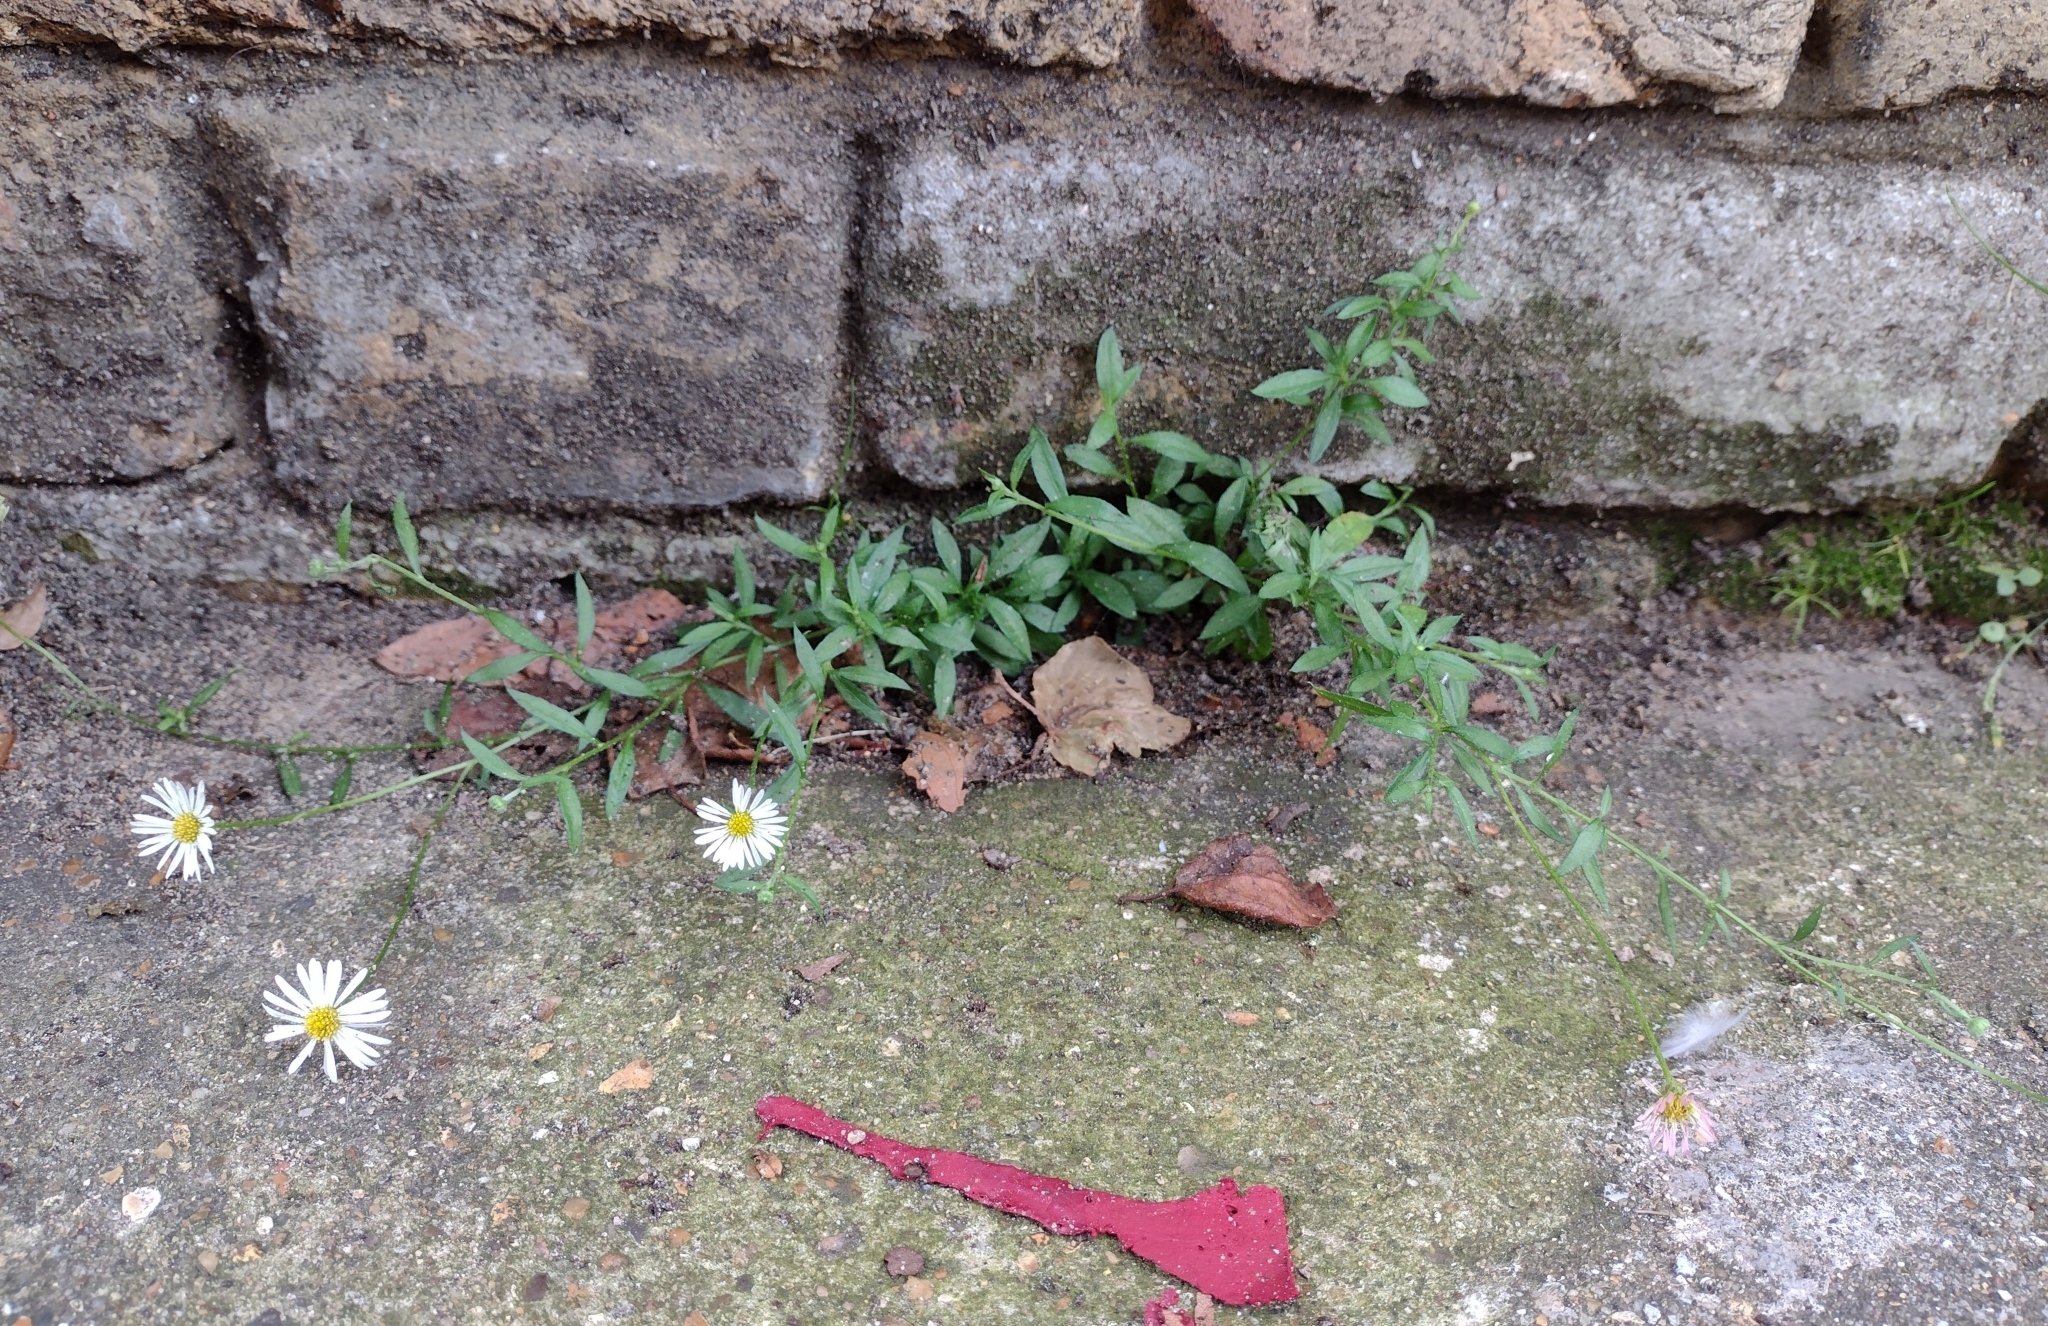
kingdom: Plantae
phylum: Tracheophyta
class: Magnoliopsida
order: Asterales
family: Asteraceae
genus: Erigeron
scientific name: Erigeron karvinskianus
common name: Mexican fleabane
